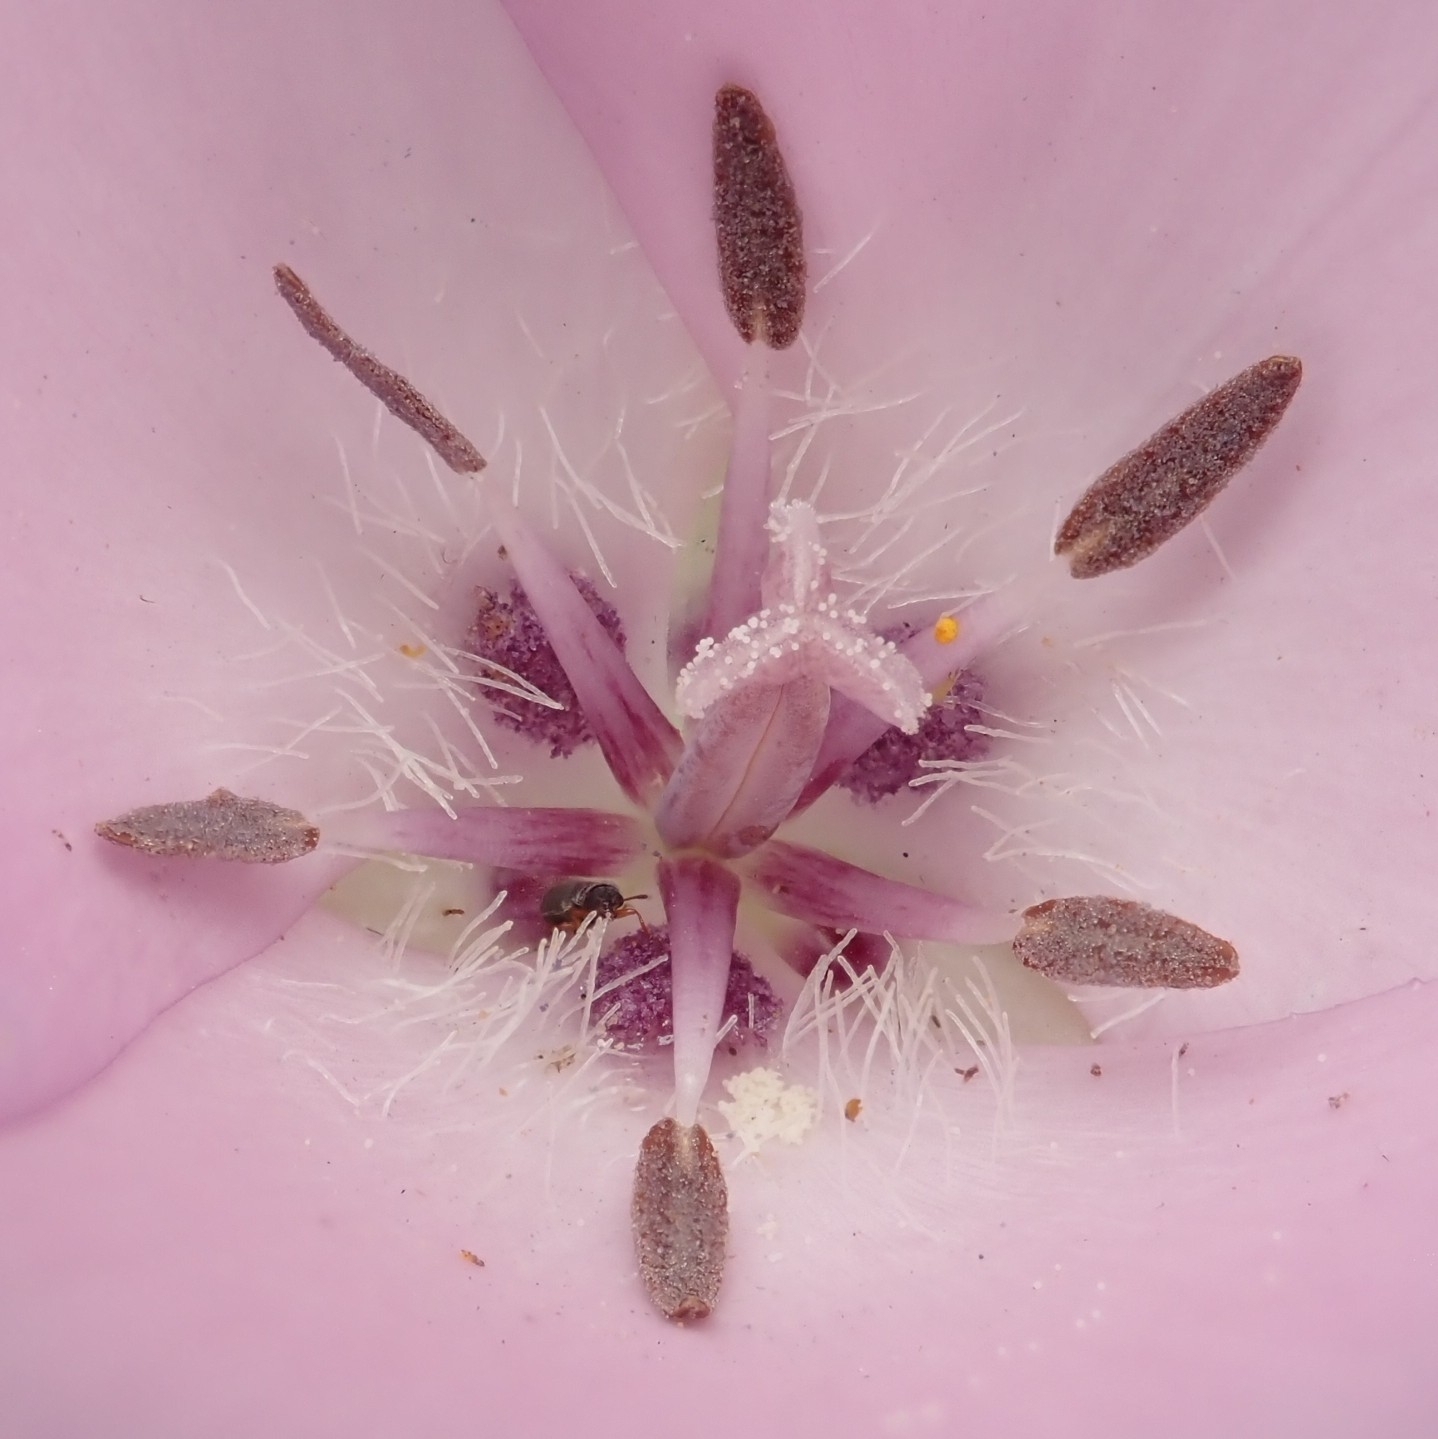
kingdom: Plantae
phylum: Tracheophyta
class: Liliopsida
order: Liliales
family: Liliaceae
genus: Calochortus
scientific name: Calochortus splendens
